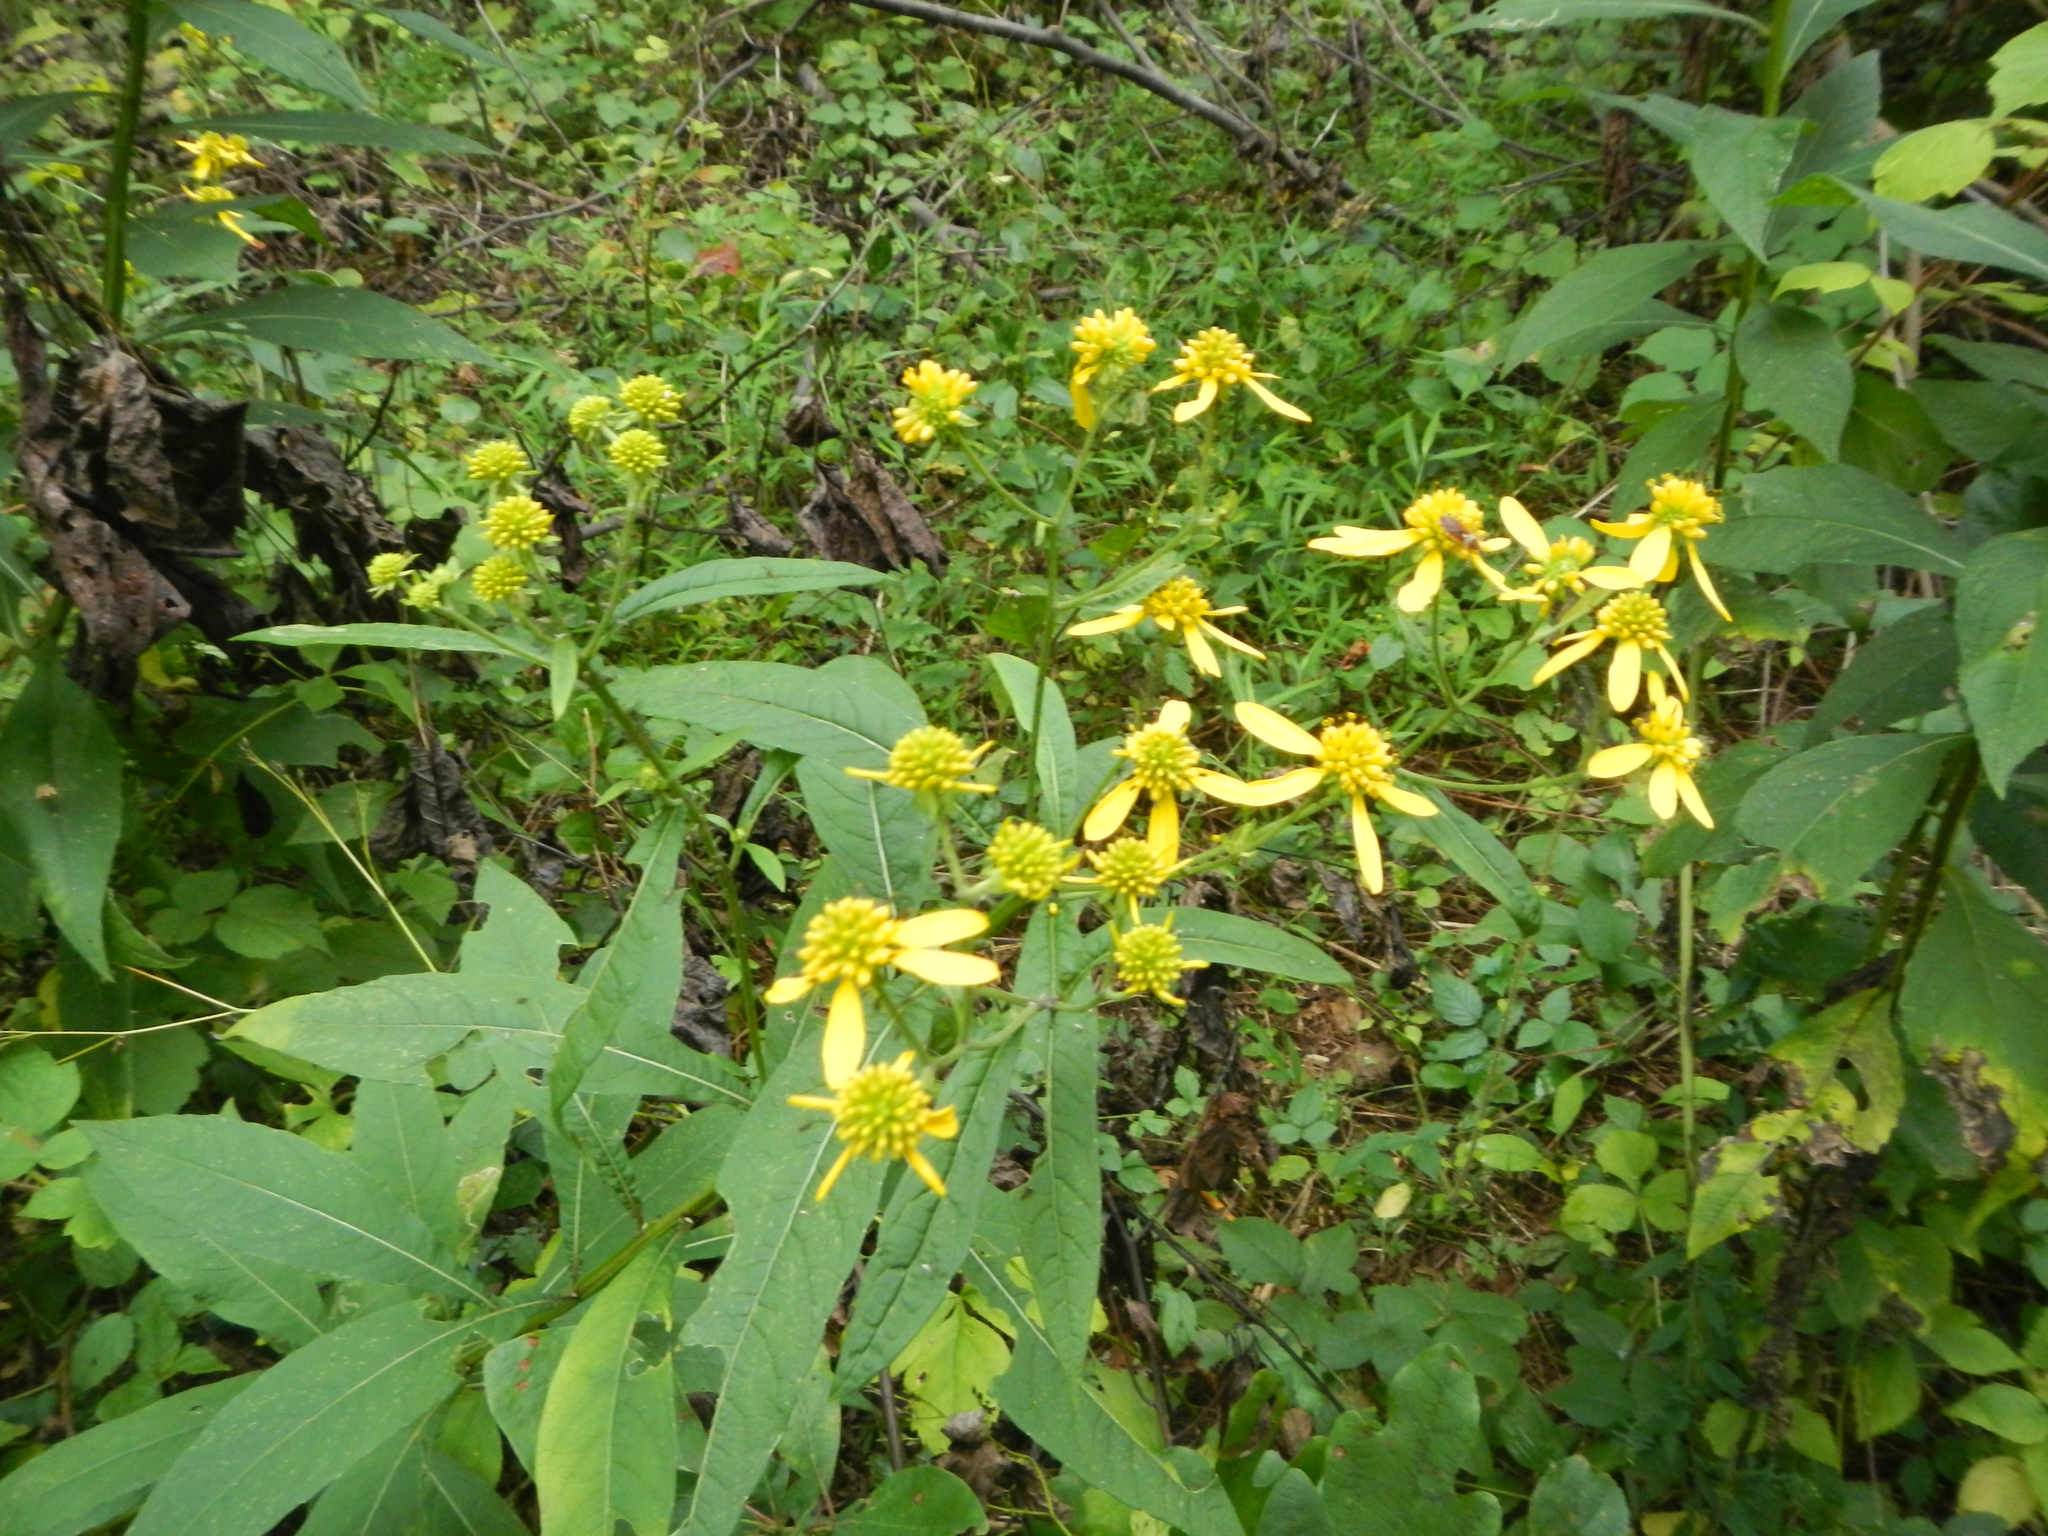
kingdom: Plantae
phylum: Tracheophyta
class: Magnoliopsida
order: Asterales
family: Asteraceae
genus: Verbesina
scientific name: Verbesina alternifolia
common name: Wingstem
